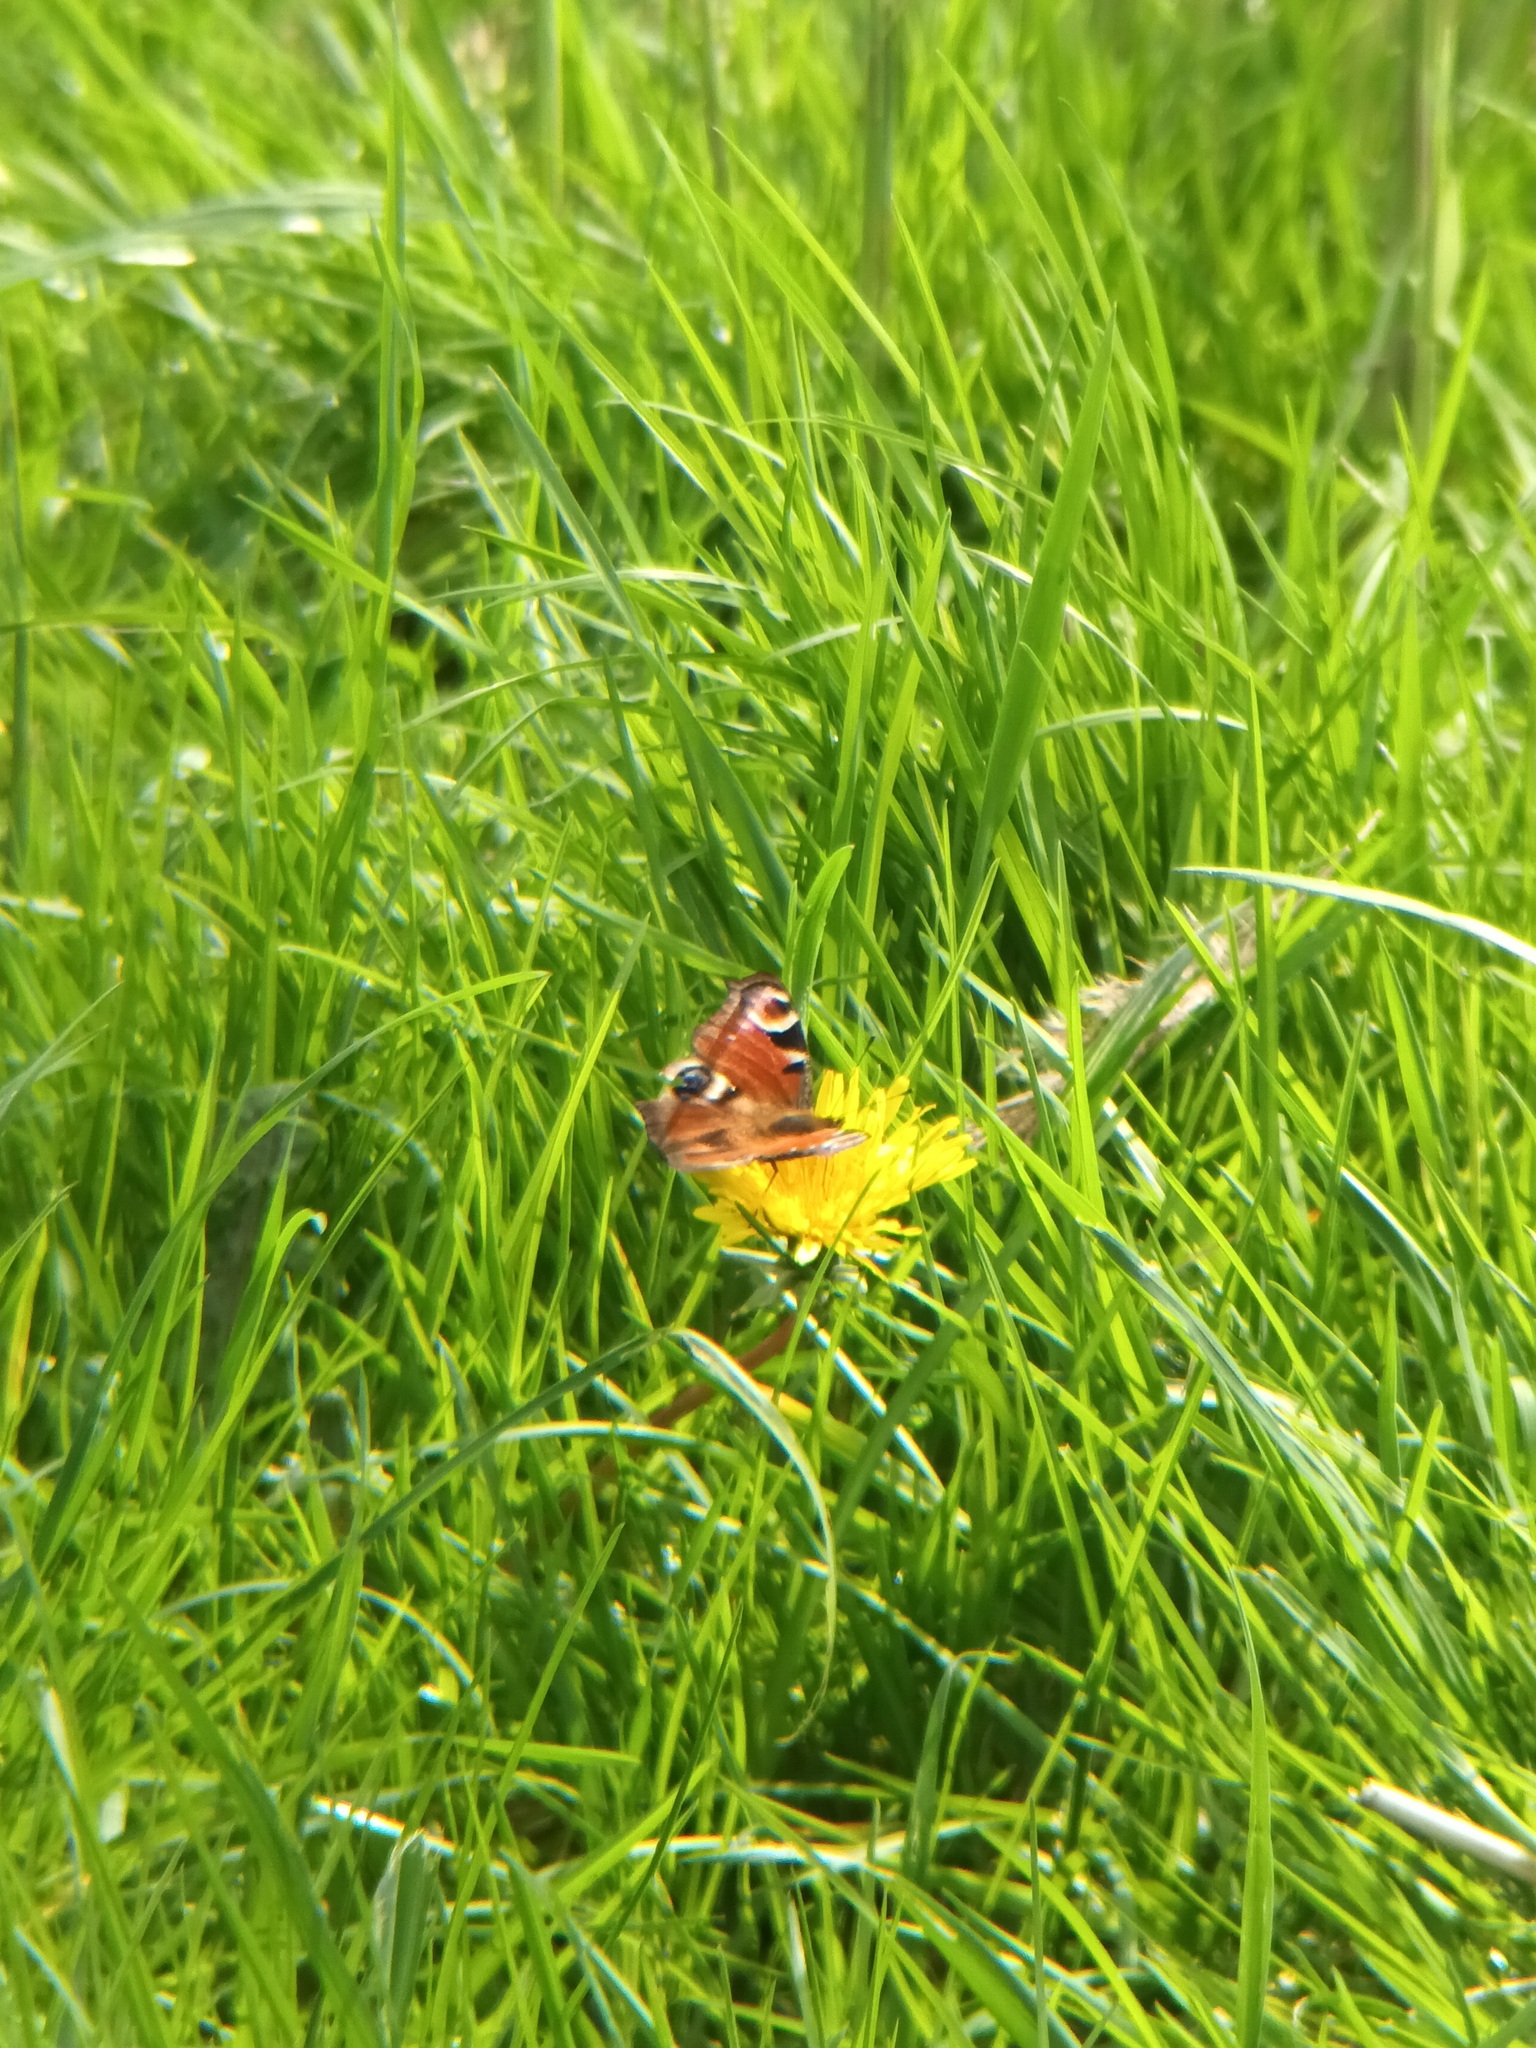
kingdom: Animalia
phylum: Arthropoda
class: Insecta
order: Lepidoptera
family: Nymphalidae
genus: Aglais
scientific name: Aglais io
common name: Peacock
